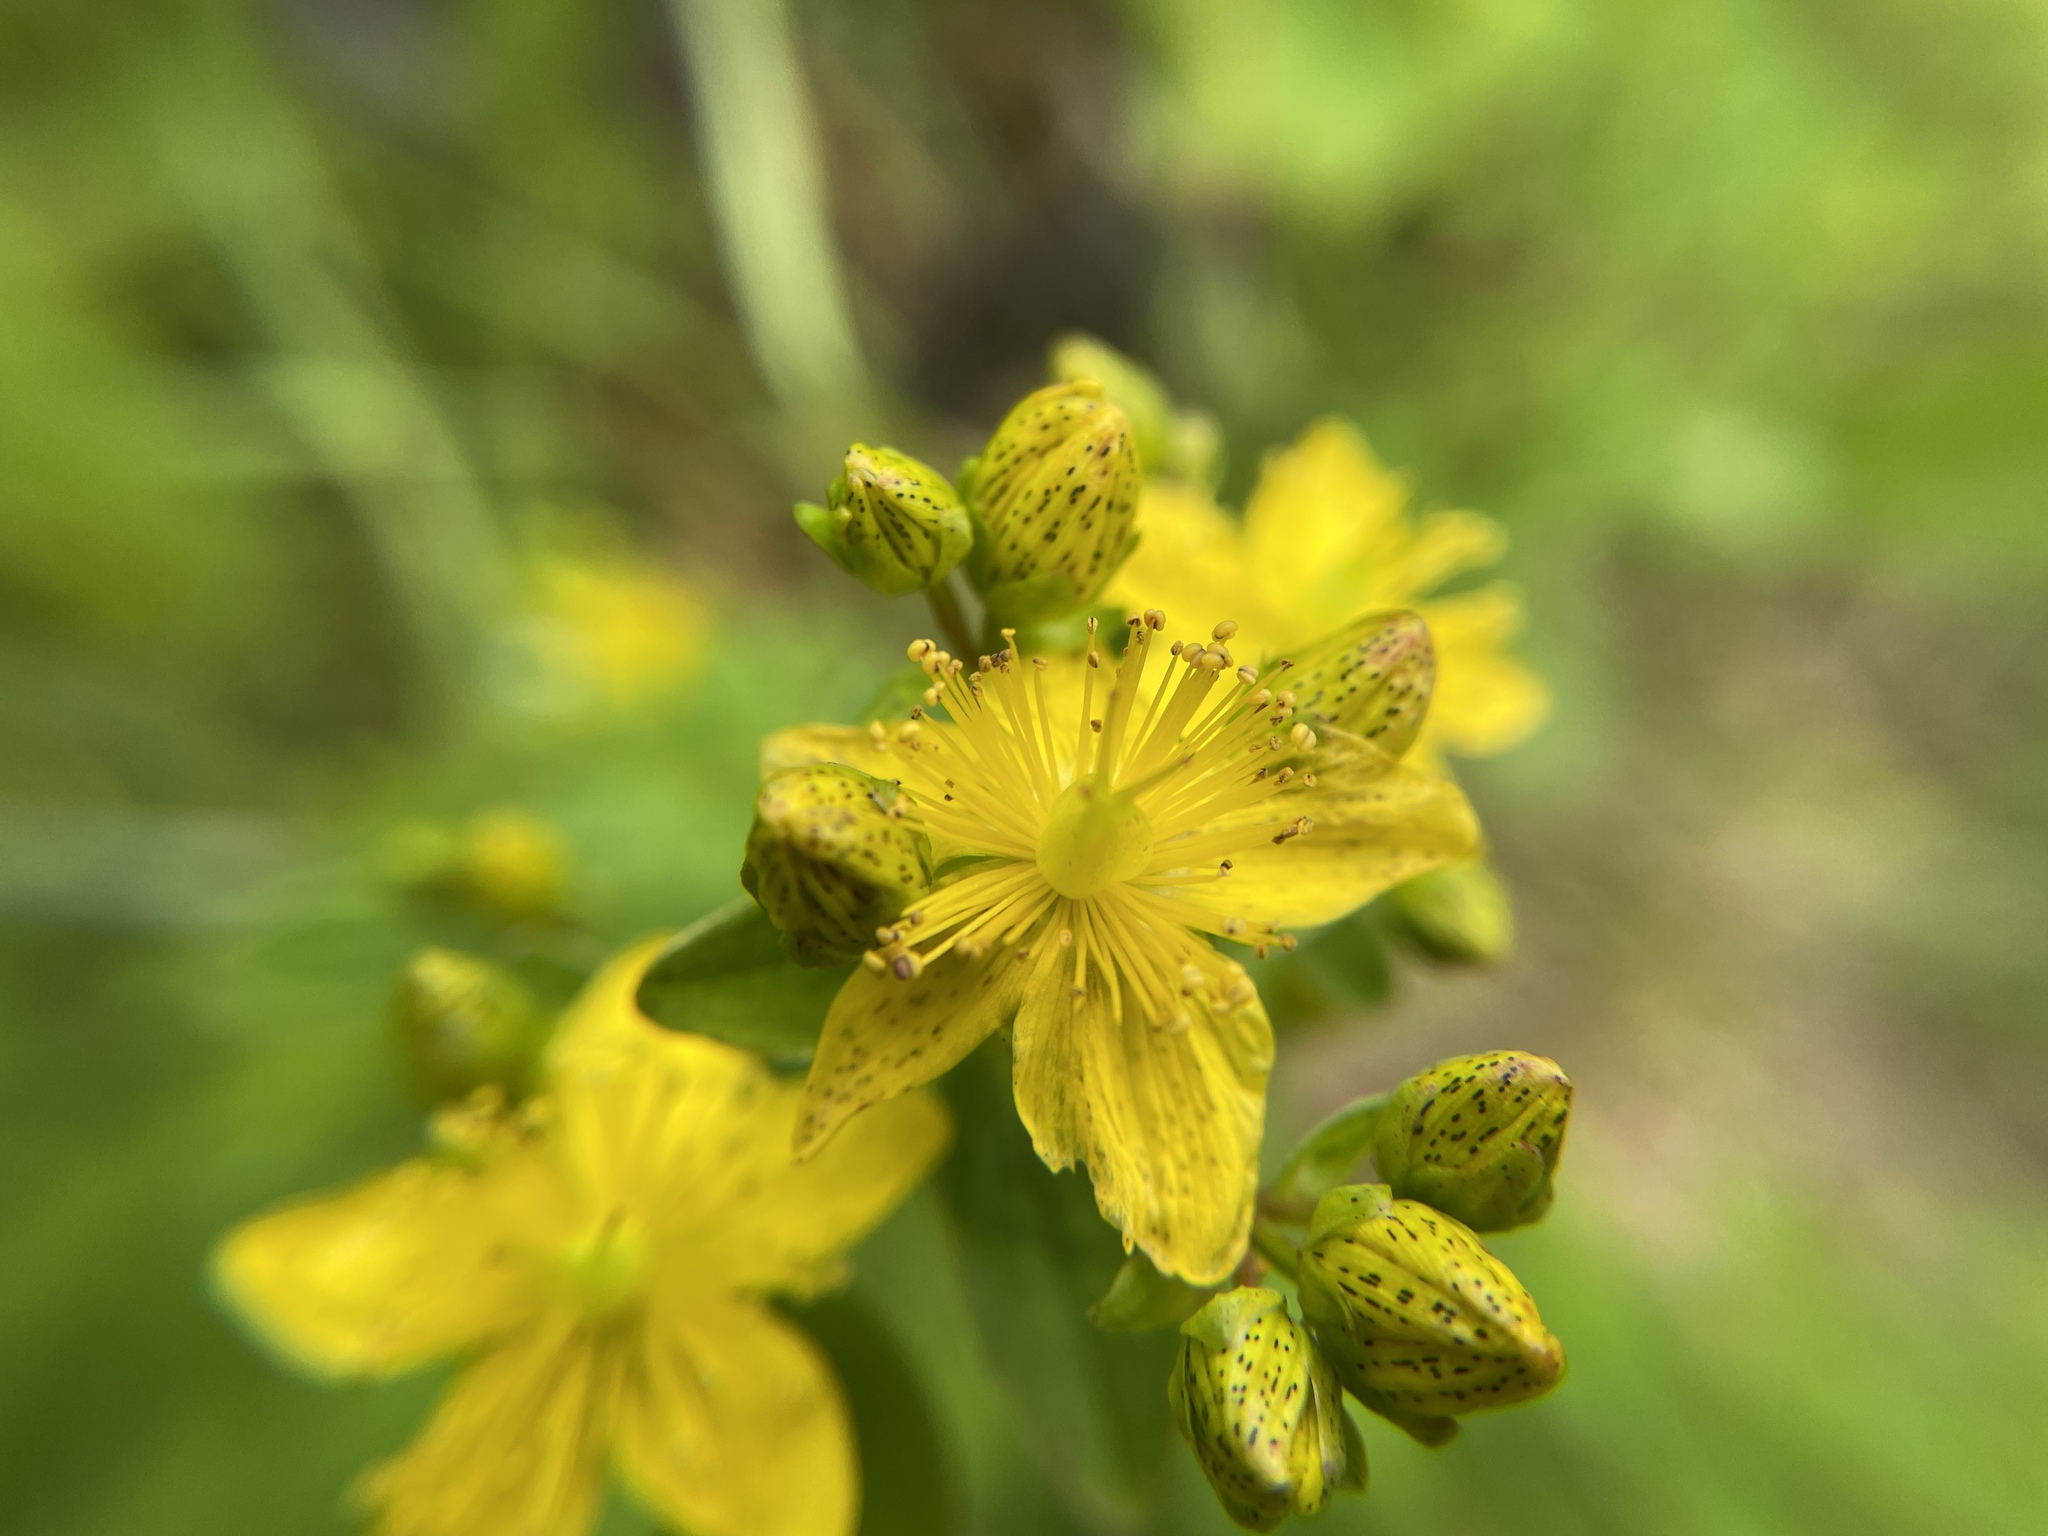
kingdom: Plantae
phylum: Tracheophyta
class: Magnoliopsida
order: Malpighiales
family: Hypericaceae
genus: Hypericum
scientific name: Hypericum maculatum
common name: Imperforate st. john's-wort
